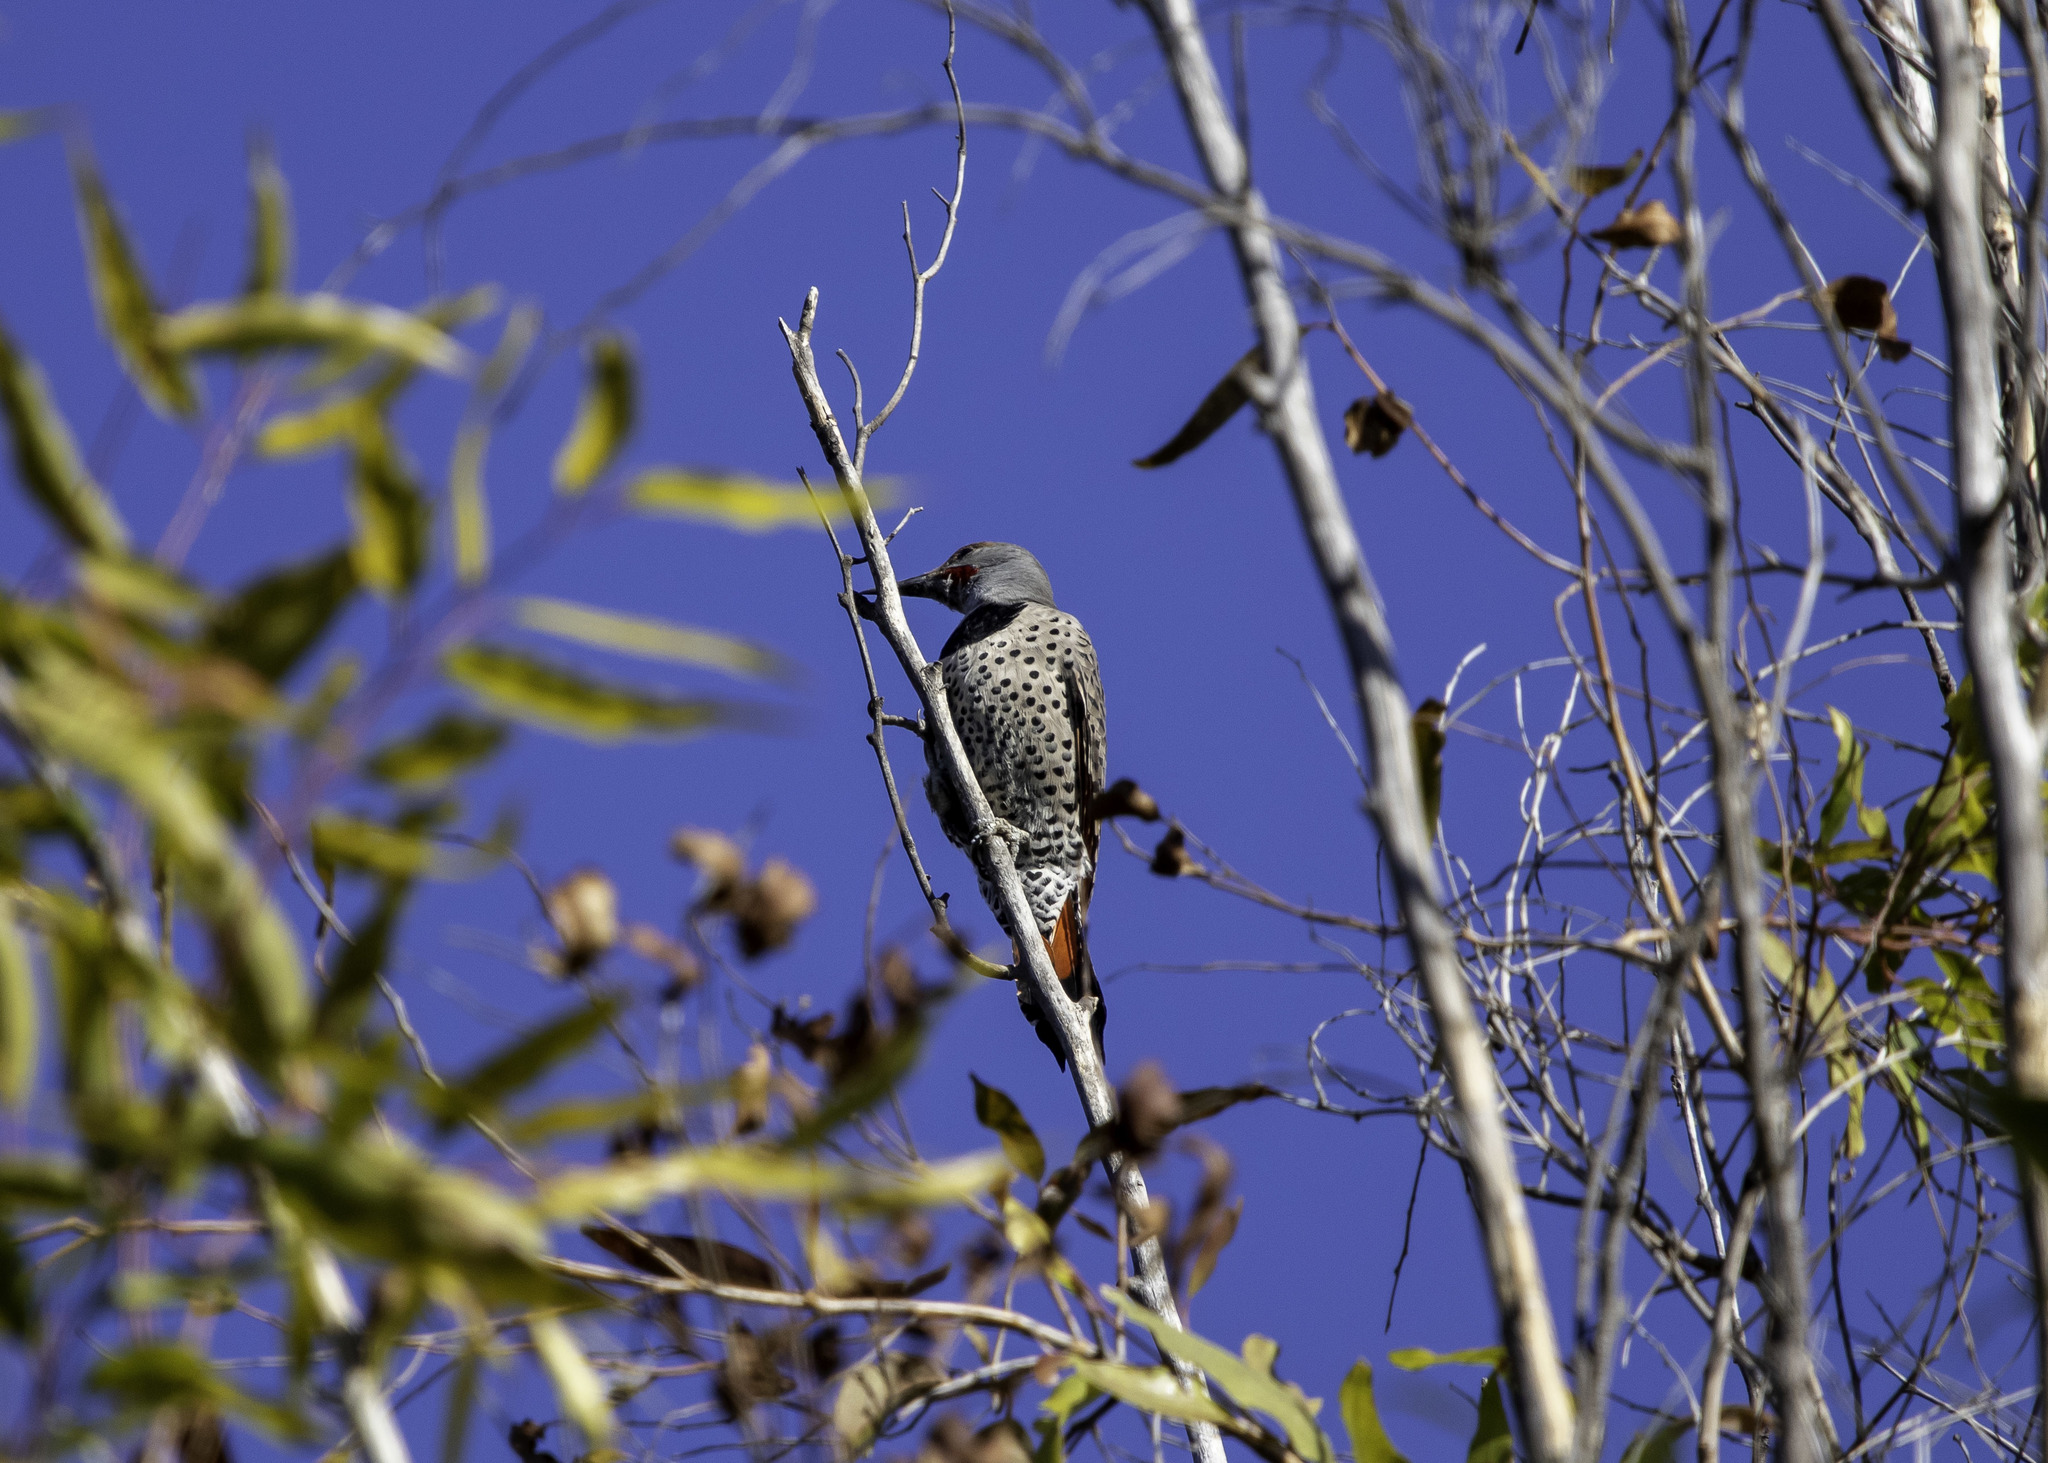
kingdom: Animalia
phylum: Chordata
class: Aves
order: Piciformes
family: Picidae
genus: Colaptes
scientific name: Colaptes auratus
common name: Northern flicker
